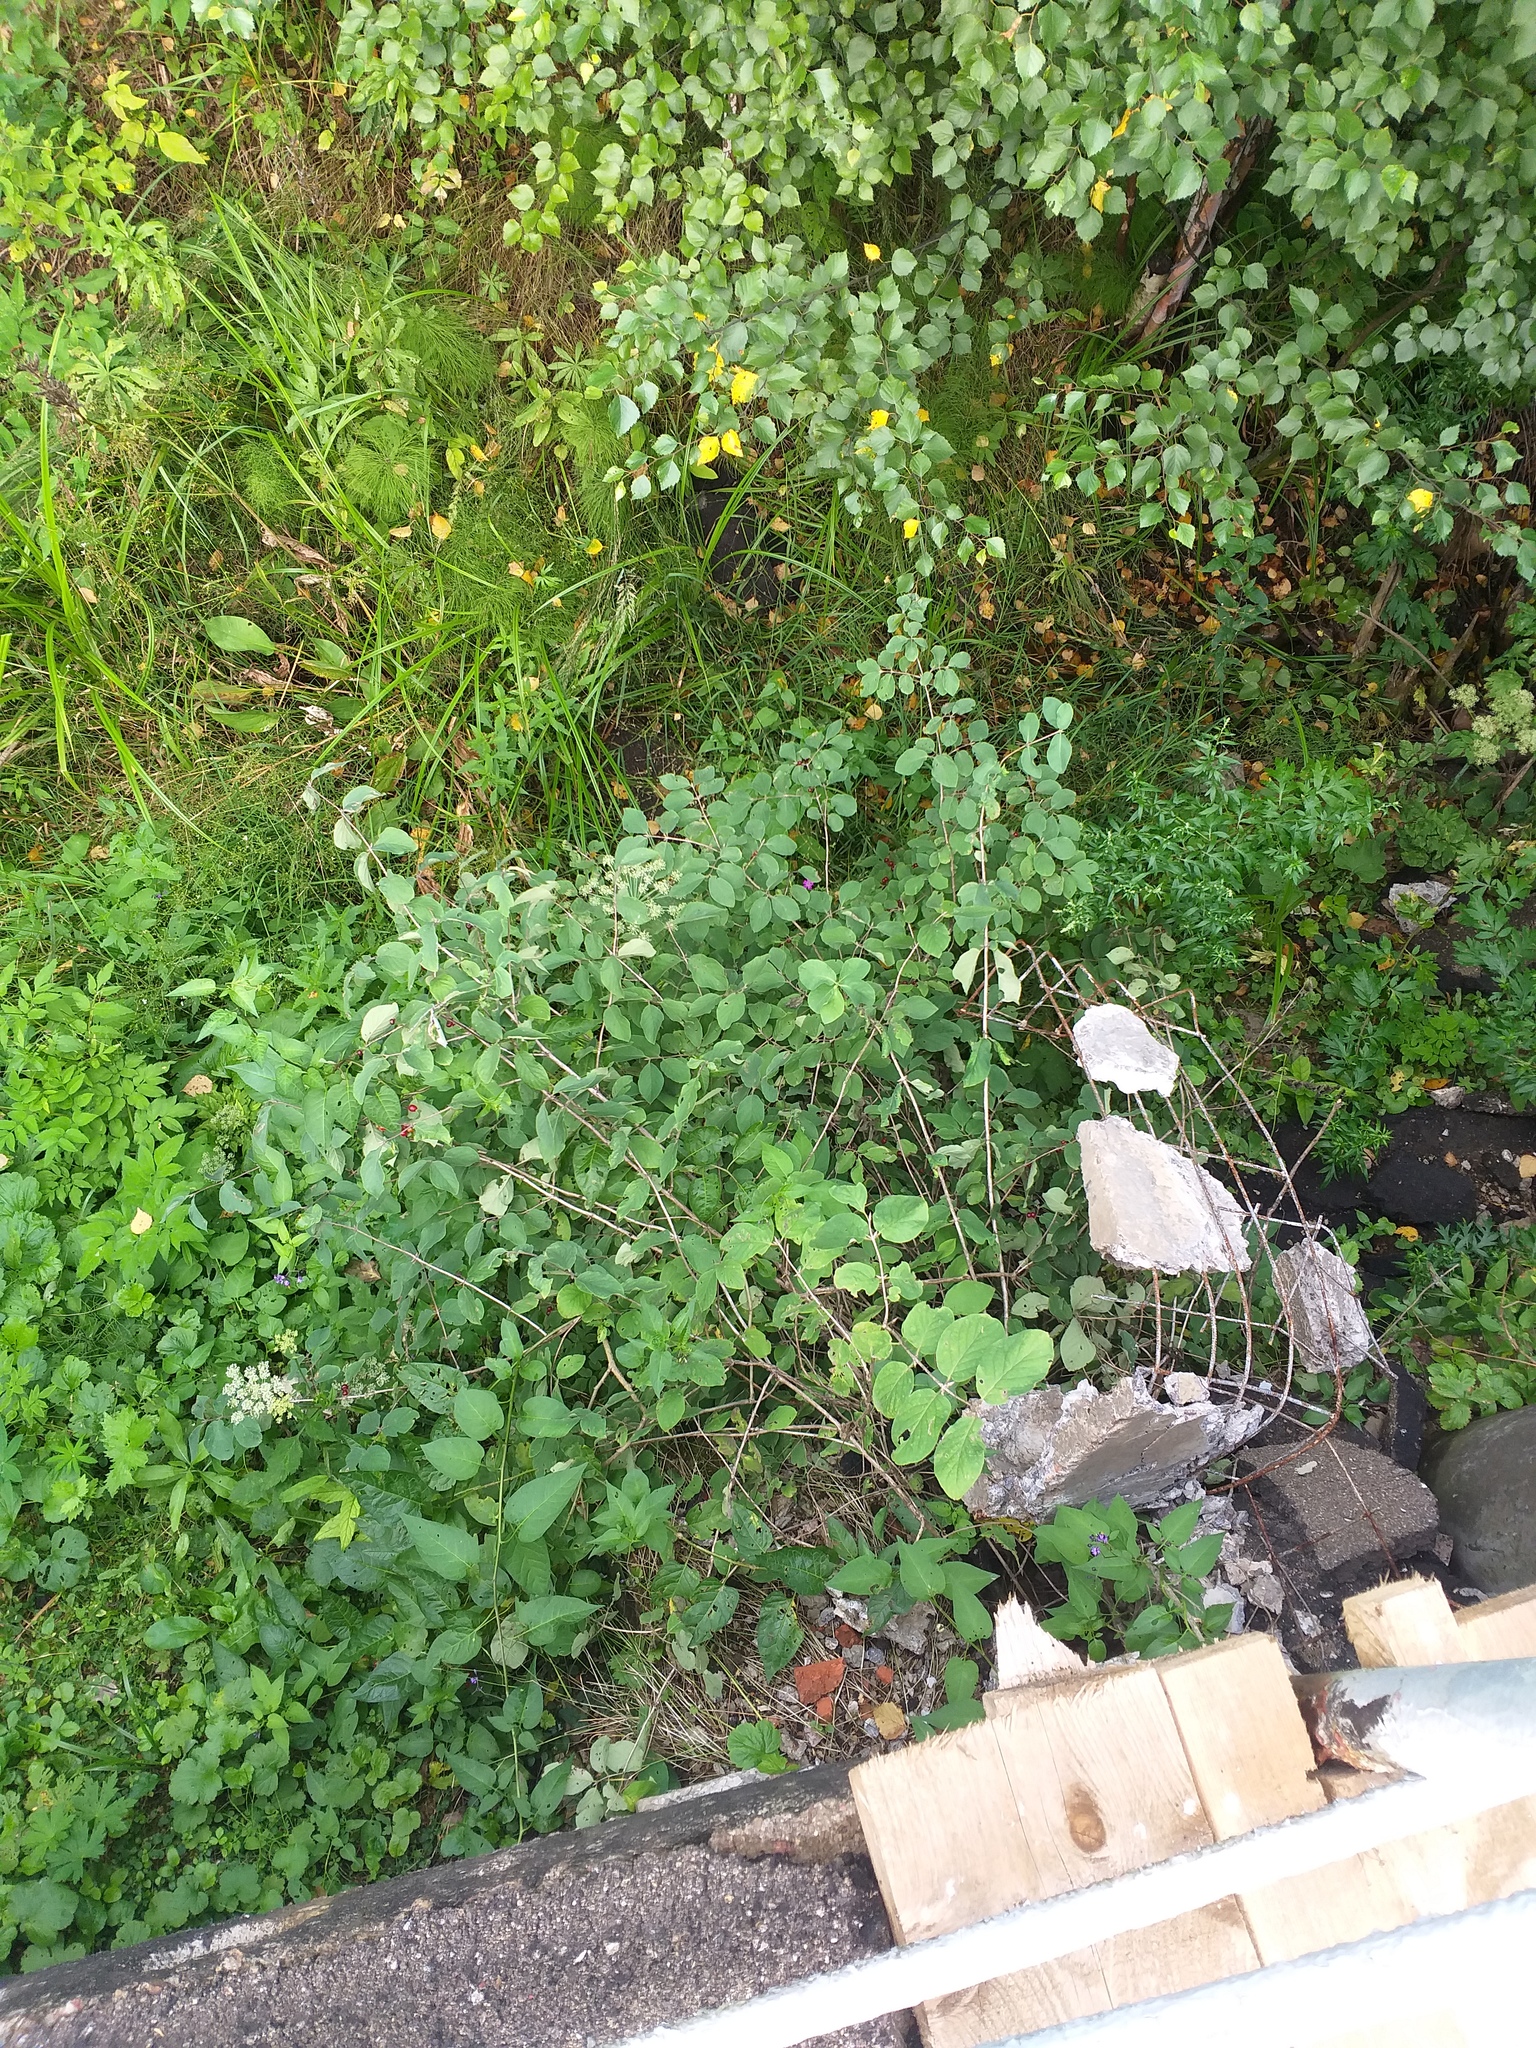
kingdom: Plantae
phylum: Tracheophyta
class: Magnoliopsida
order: Dipsacales
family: Caprifoliaceae
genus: Lonicera
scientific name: Lonicera xylosteum
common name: Fly honeysuckle
